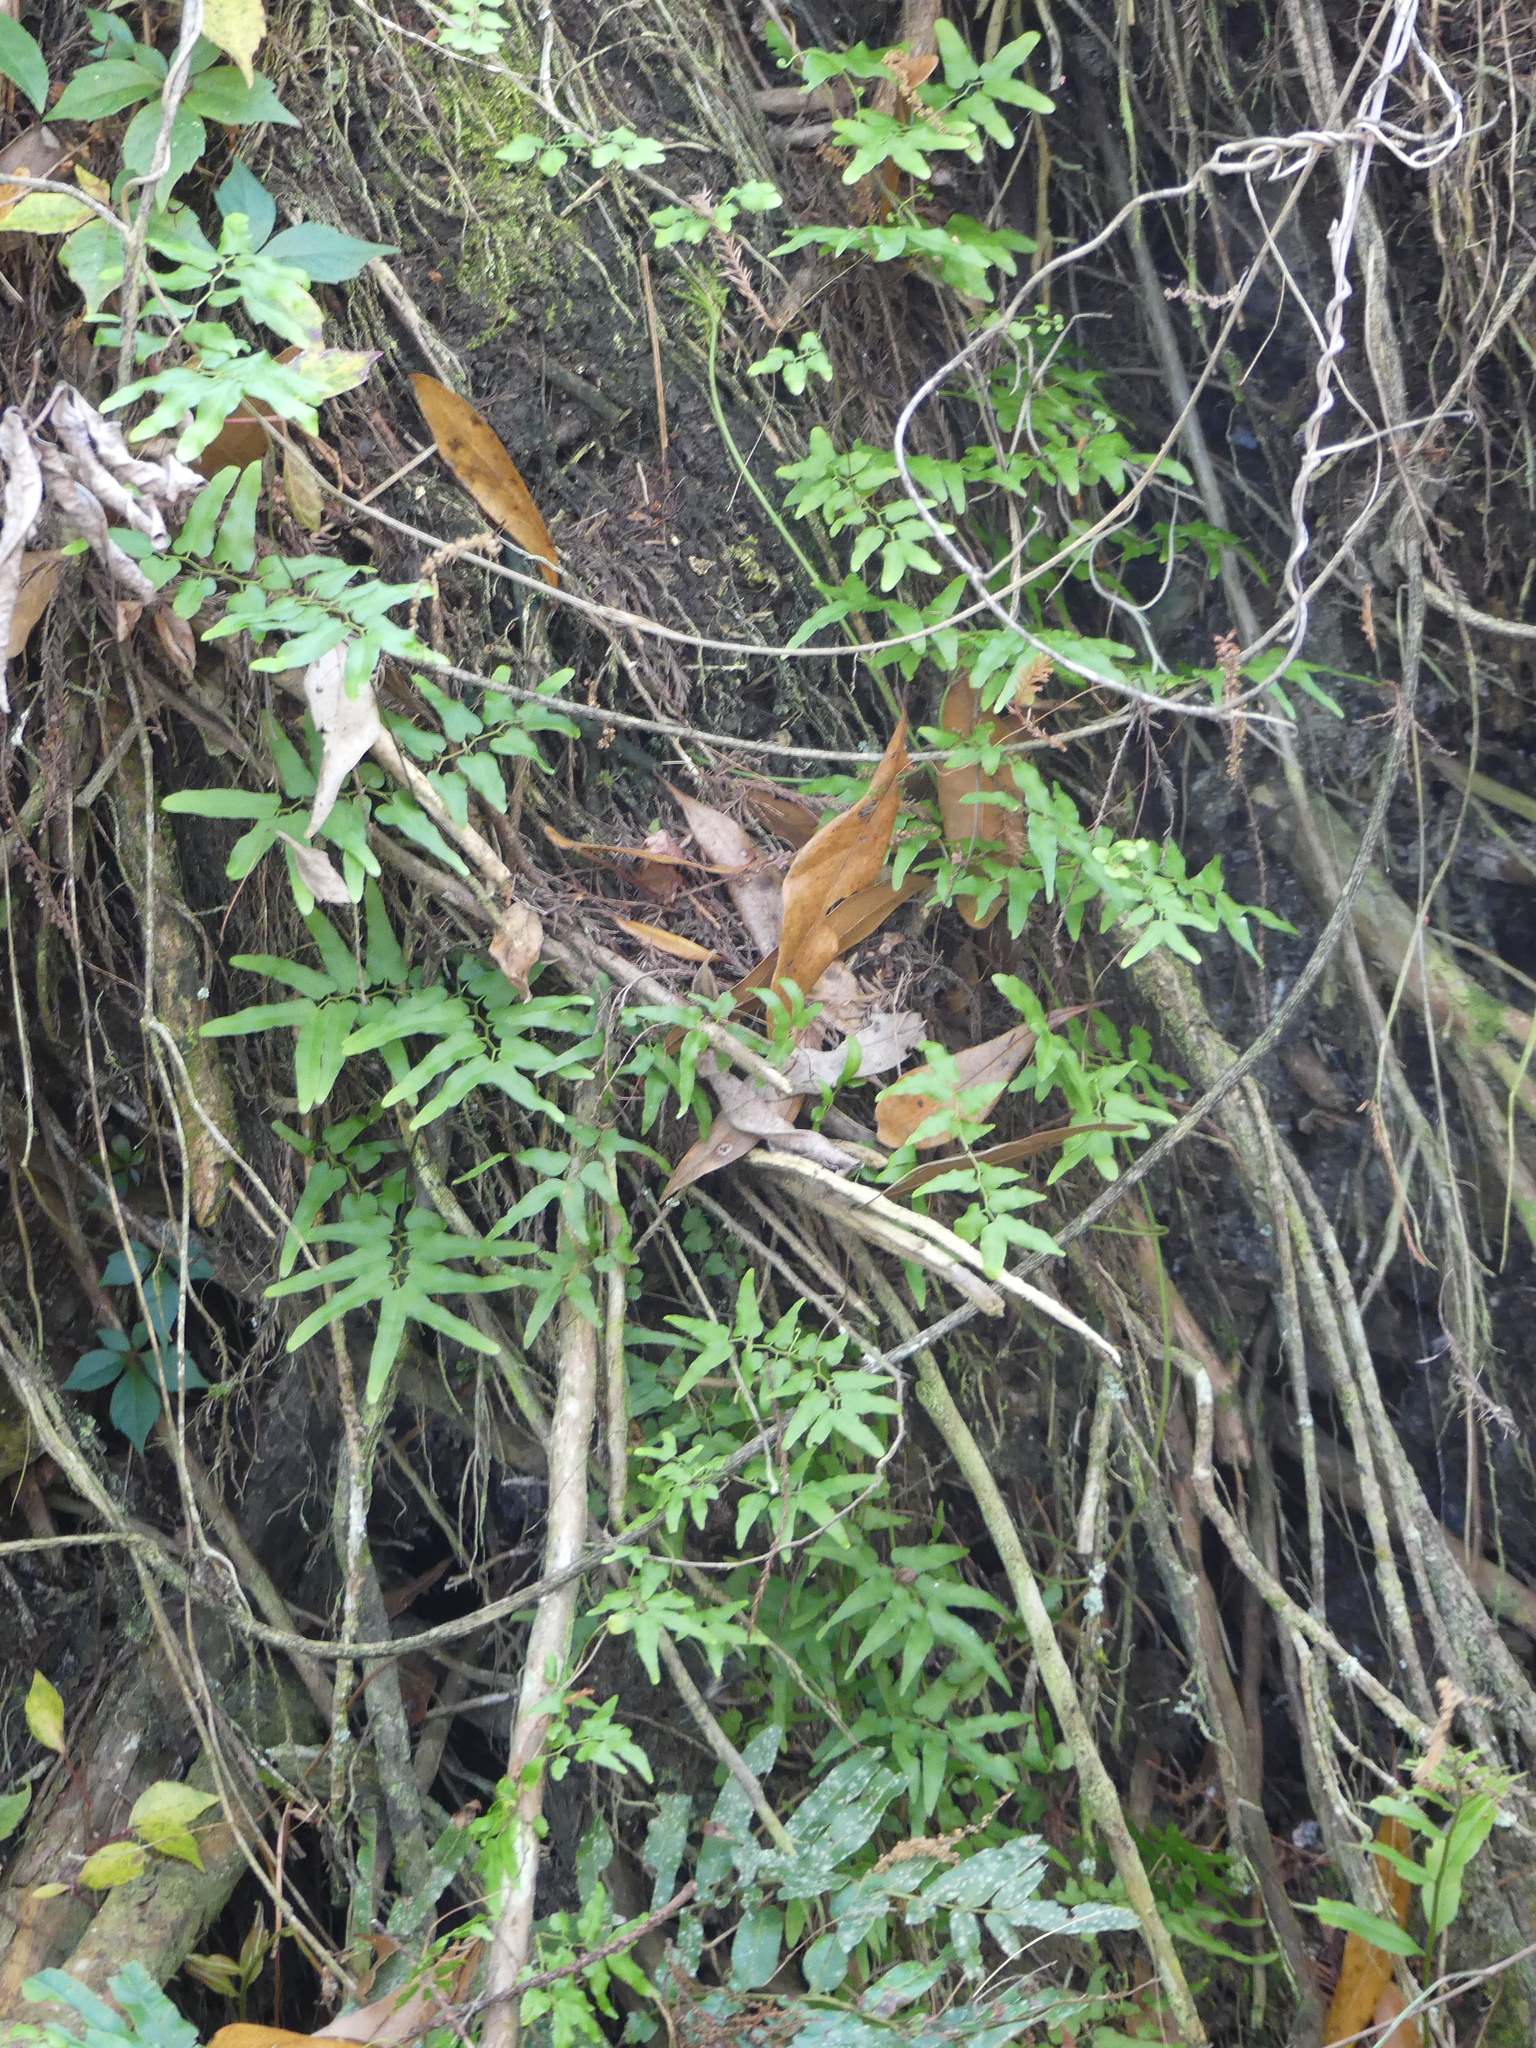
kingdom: Plantae
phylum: Tracheophyta
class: Polypodiopsida
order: Schizaeales
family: Lygodiaceae
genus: Lygodium
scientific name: Lygodium japonicum
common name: Japanese climbing fern
